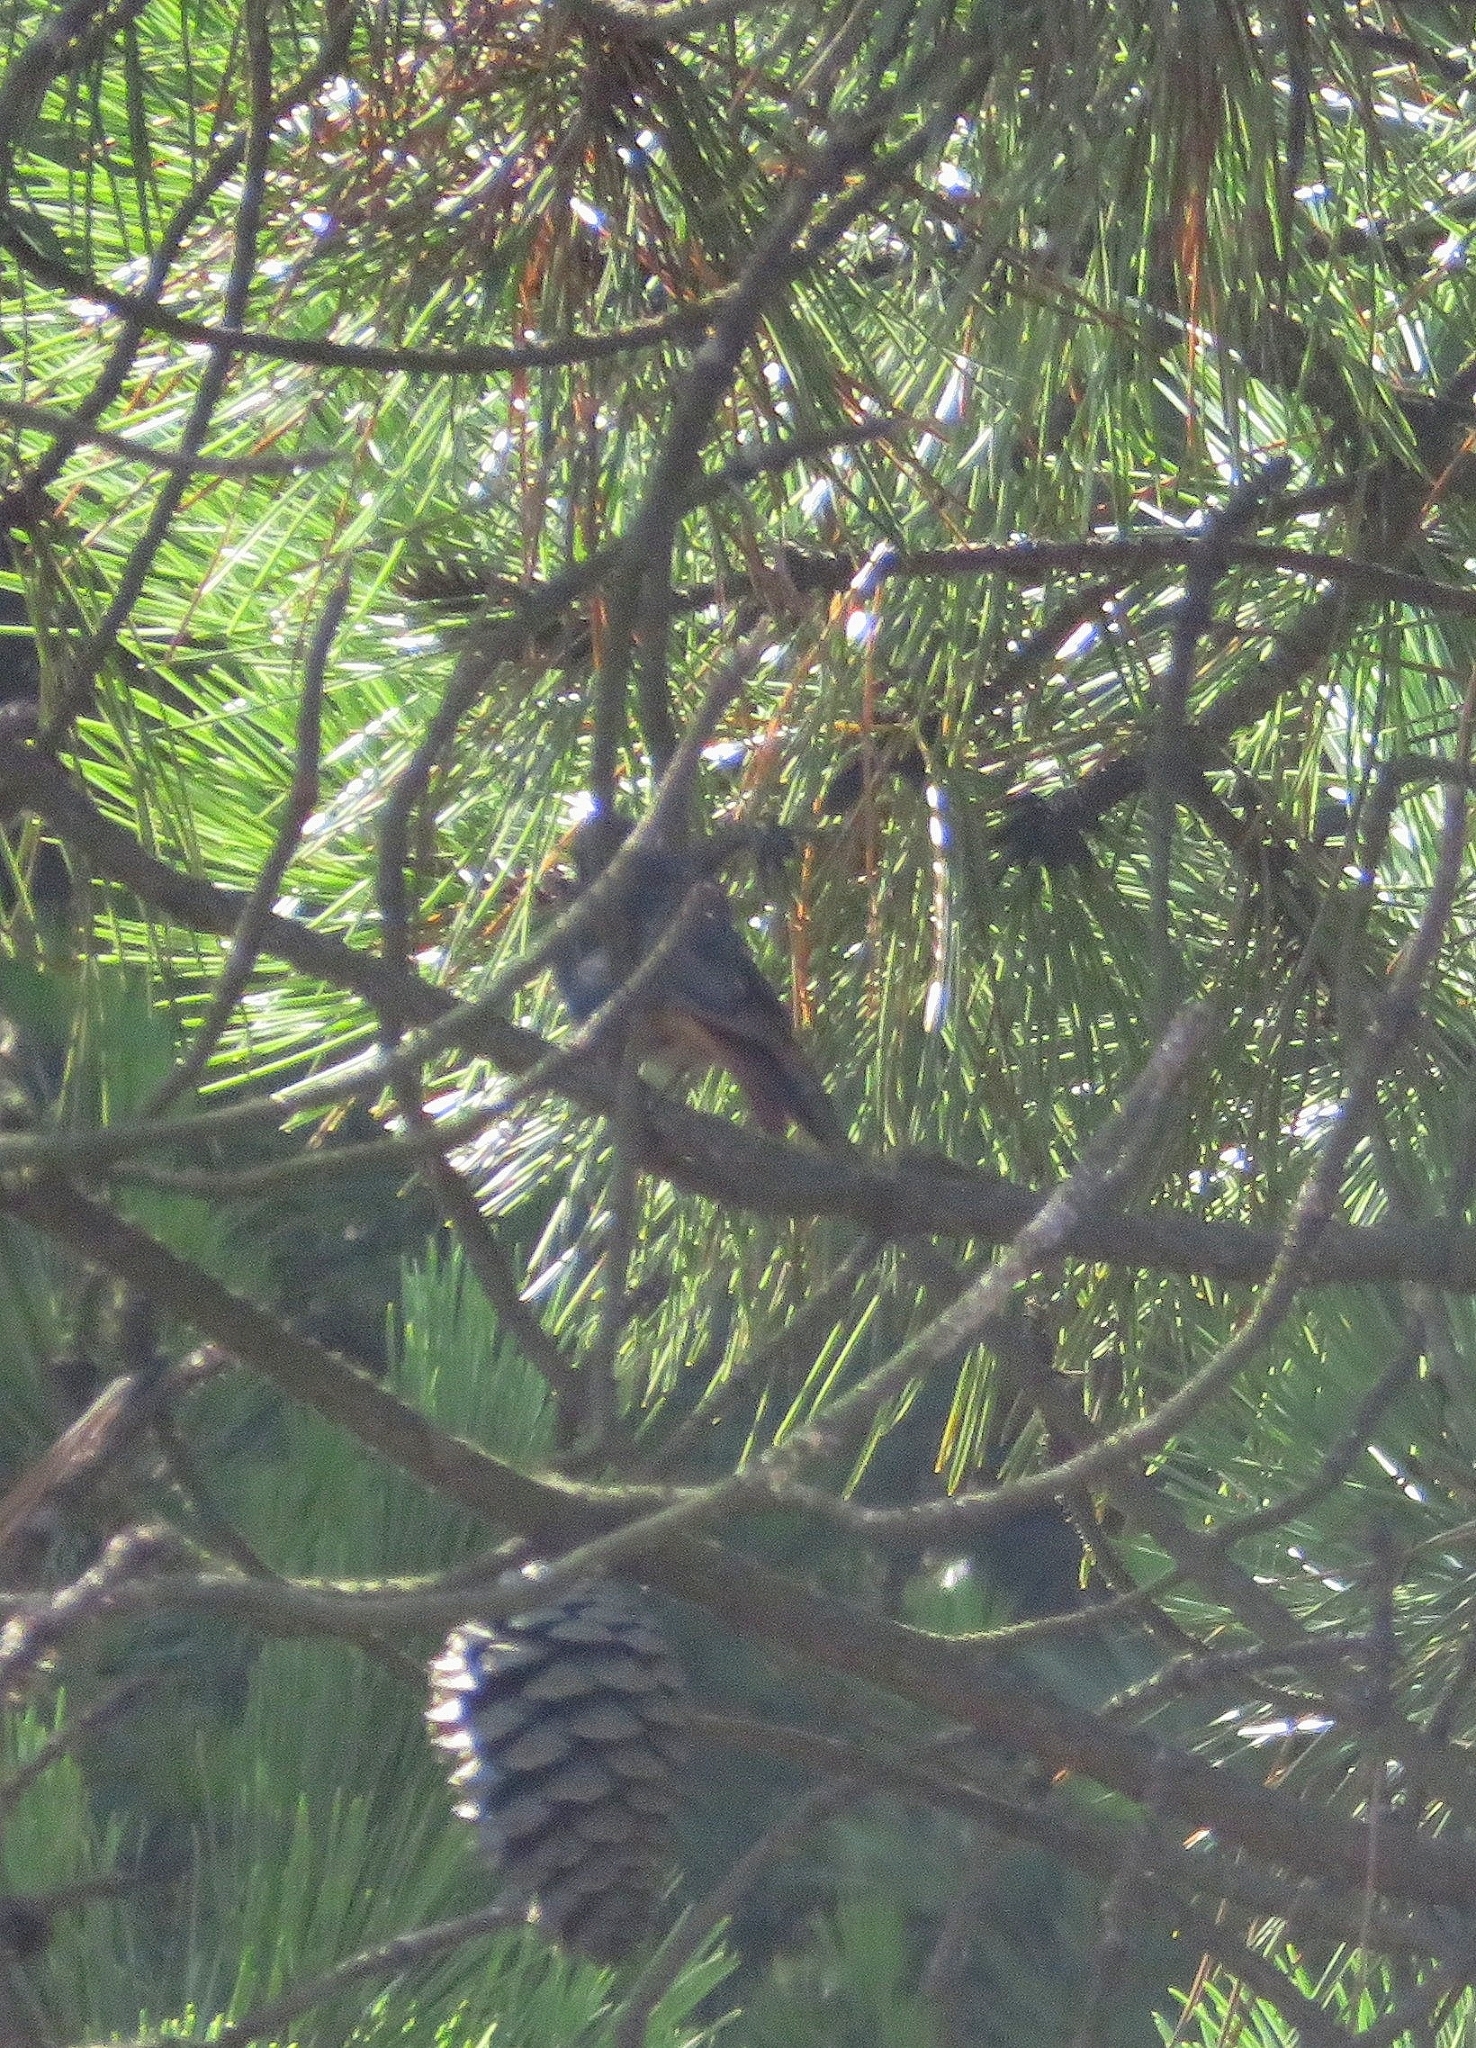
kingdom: Animalia
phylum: Chordata
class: Aves
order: Passeriformes
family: Muscicapidae
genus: Phoenicurus
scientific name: Phoenicurus ochruros
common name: Black redstart
